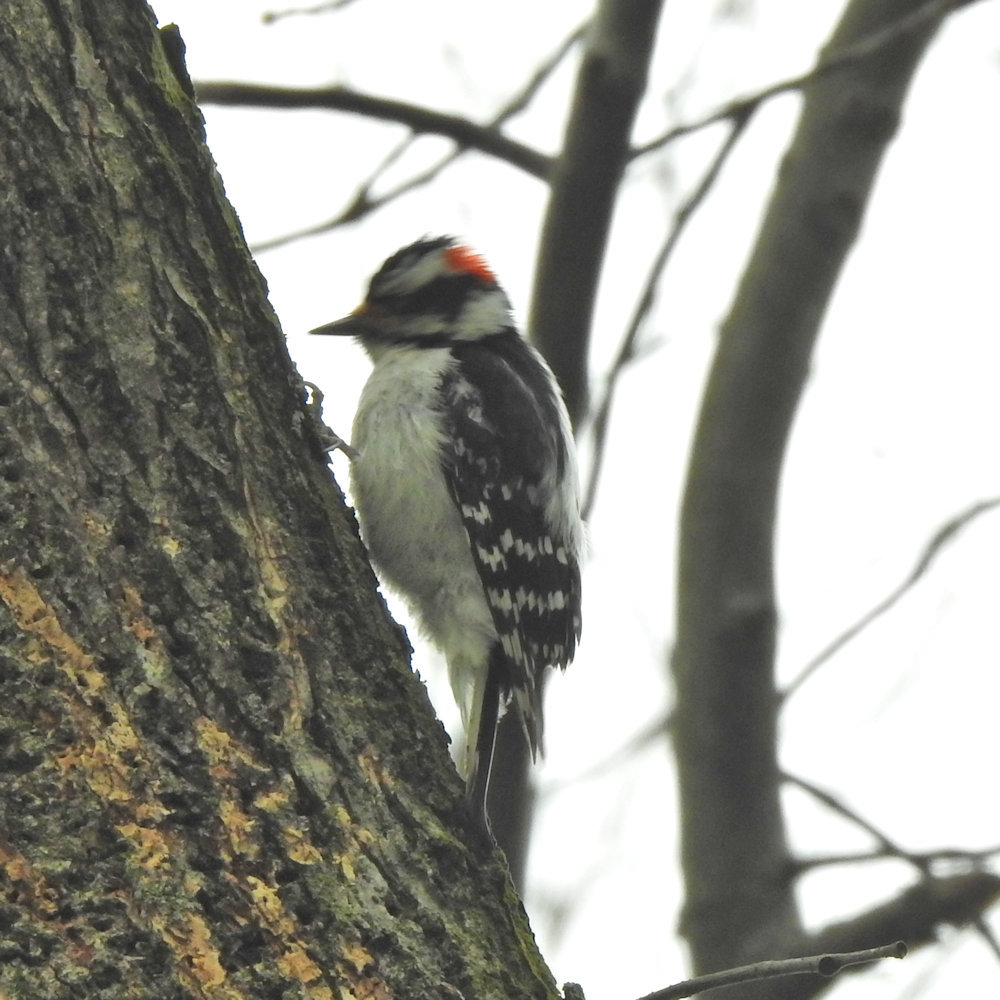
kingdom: Animalia
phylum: Chordata
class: Aves
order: Piciformes
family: Picidae
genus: Dryobates
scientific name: Dryobates pubescens
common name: Downy woodpecker
